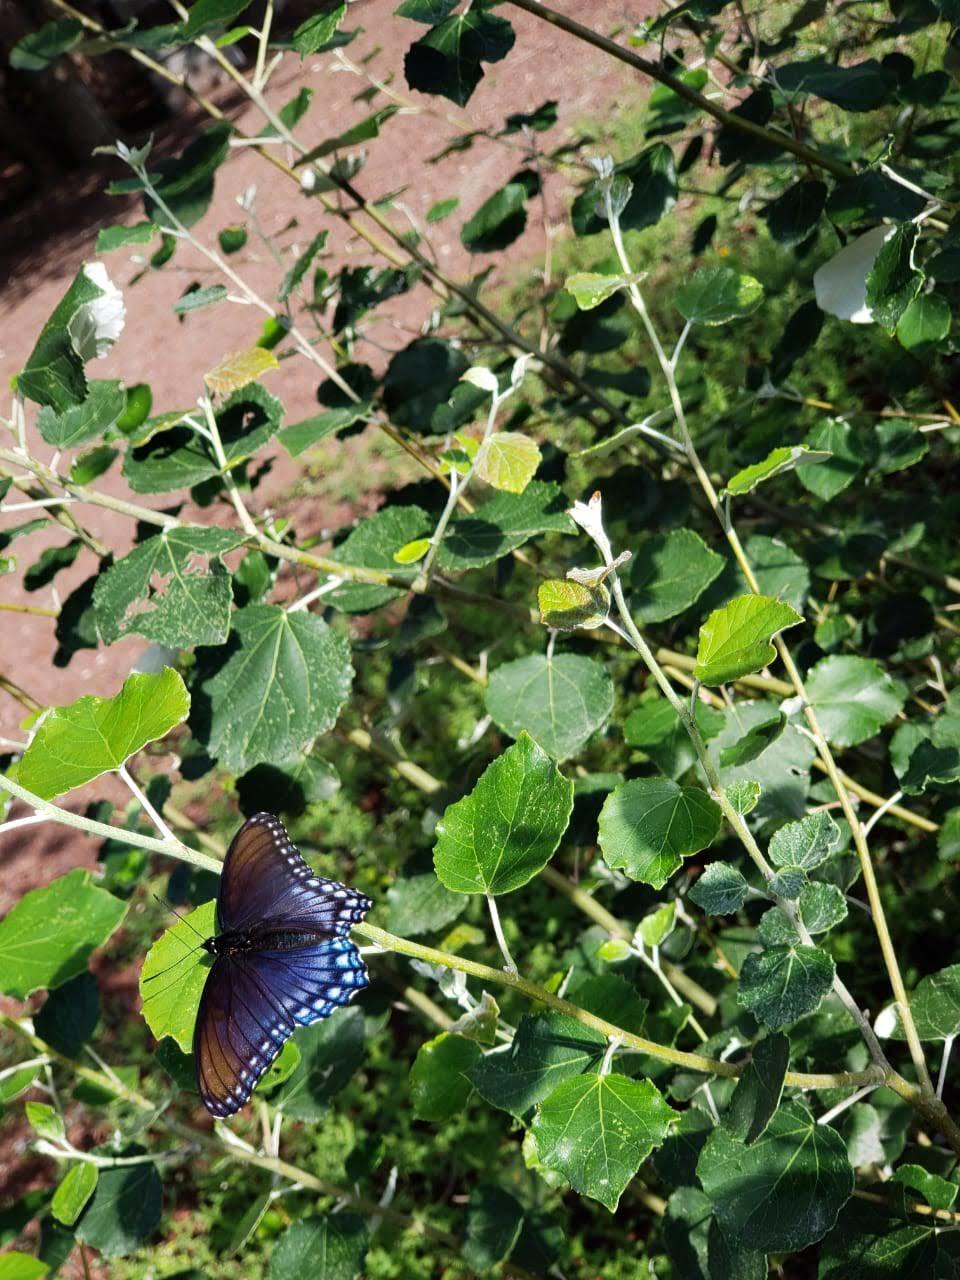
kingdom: Animalia
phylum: Arthropoda
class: Insecta
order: Lepidoptera
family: Nymphalidae
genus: Limenitis
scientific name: Limenitis arthemis
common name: Red-spotted admiral
